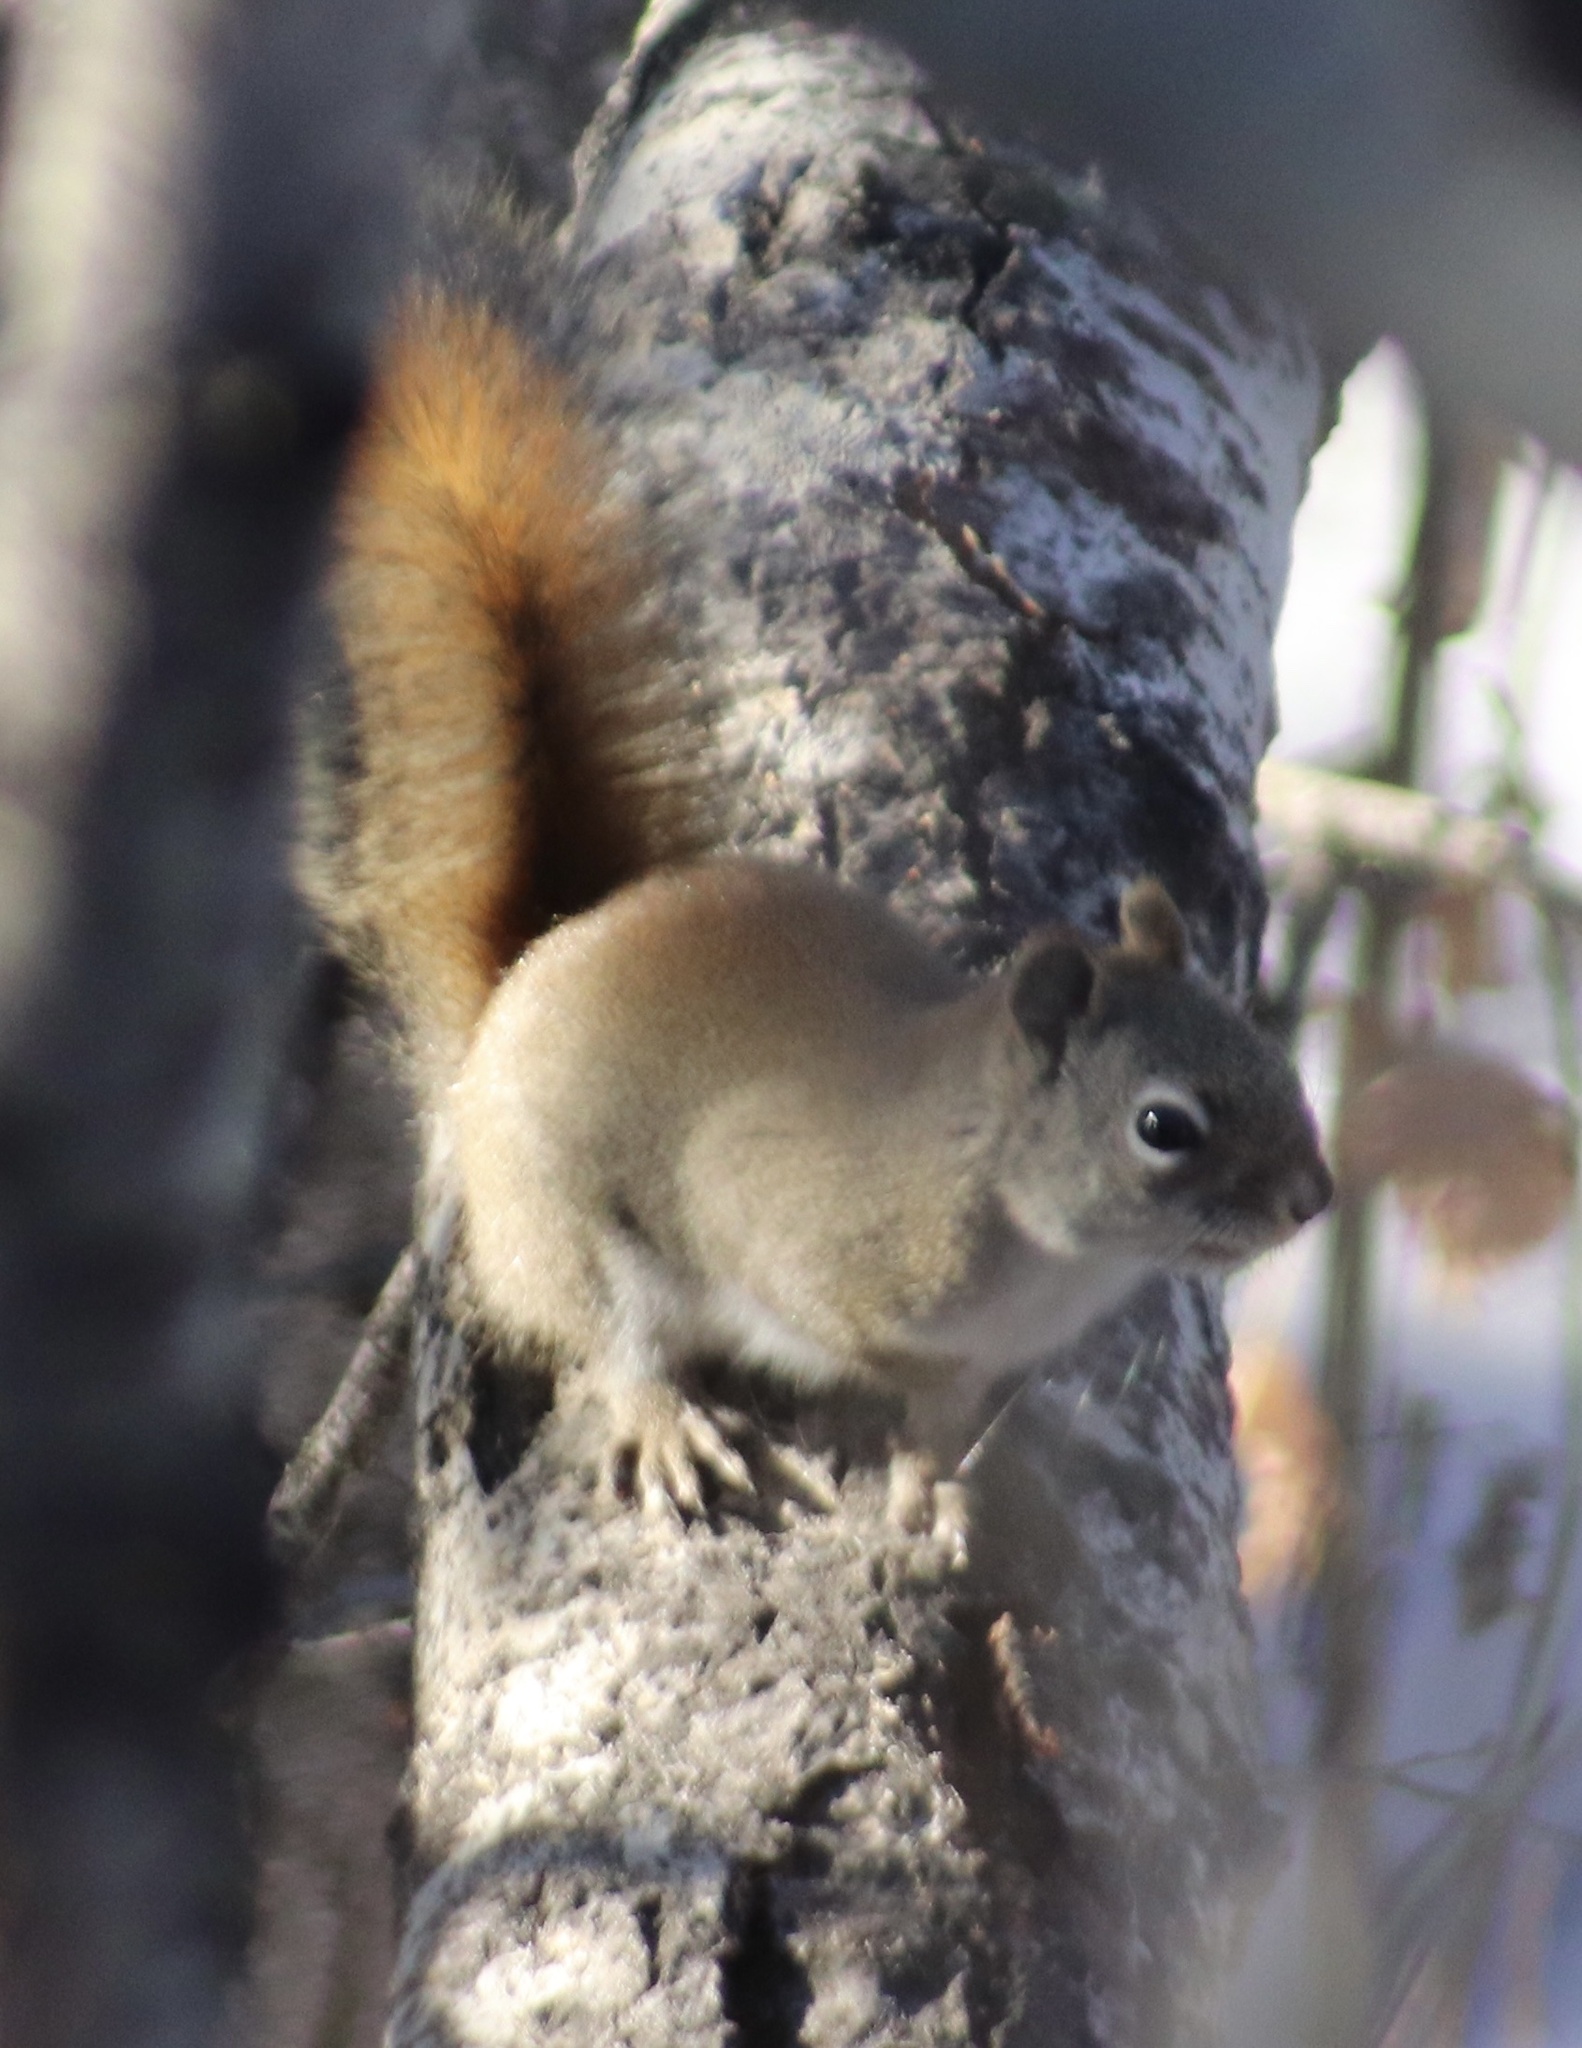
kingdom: Animalia
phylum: Chordata
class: Mammalia
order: Rodentia
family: Sciuridae
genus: Tamiasciurus
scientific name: Tamiasciurus hudsonicus
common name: Red squirrel
